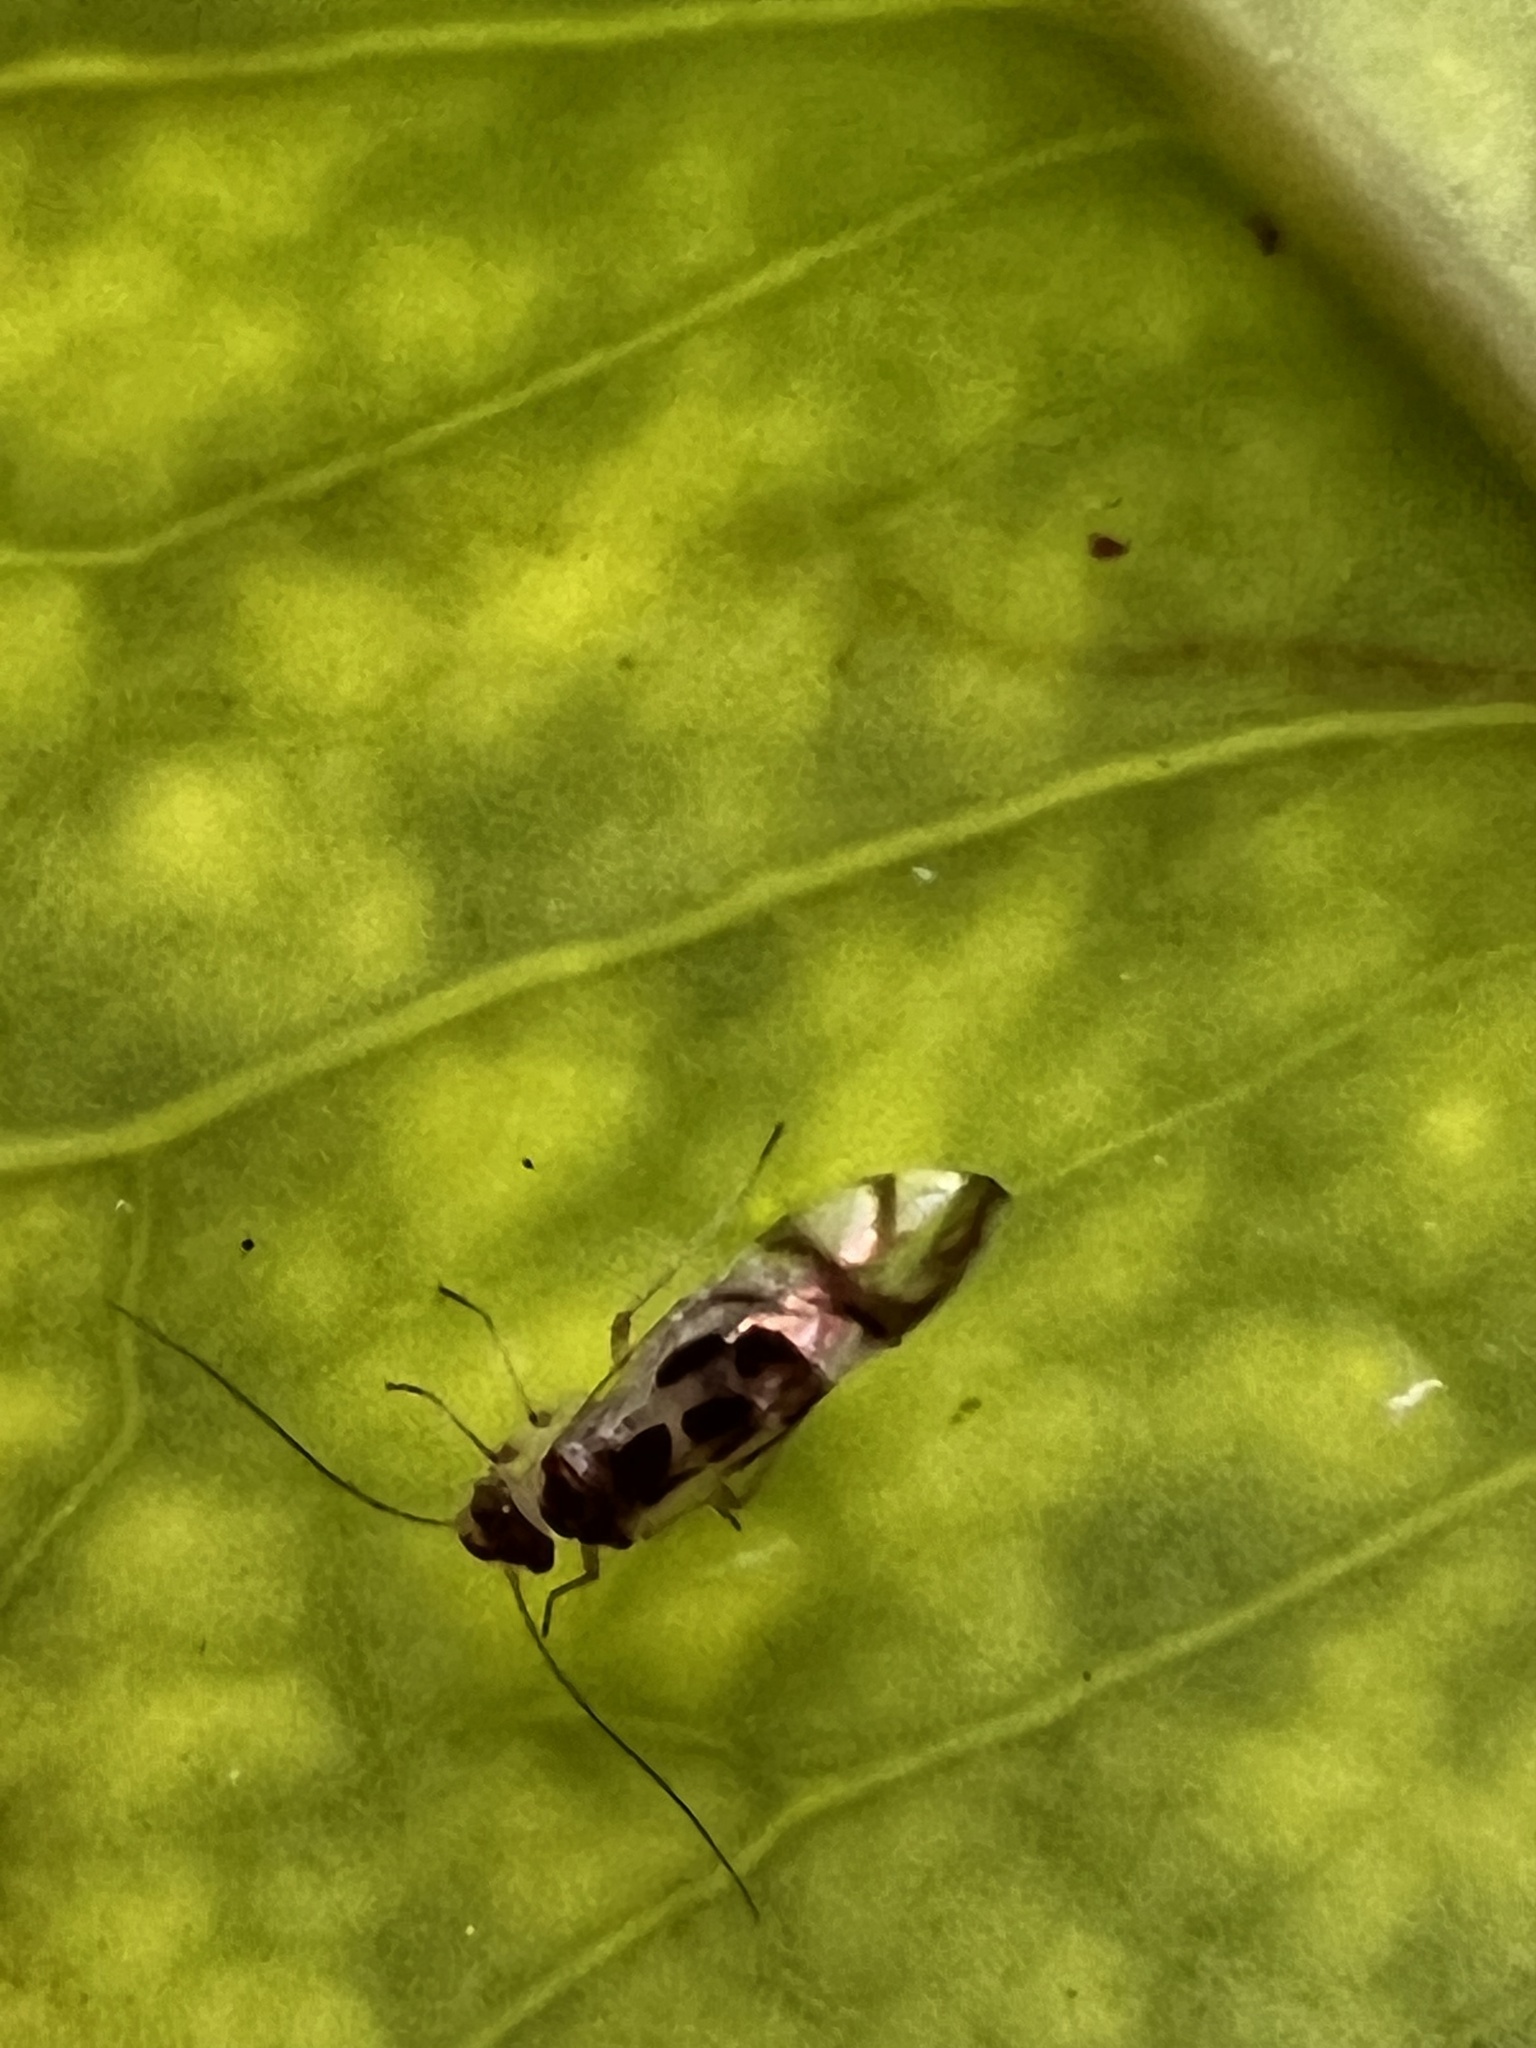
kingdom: Animalia
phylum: Arthropoda
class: Insecta
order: Psocodea
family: Stenopsocidae
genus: Graphopsocus
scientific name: Graphopsocus cruciatus
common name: Lizard bark louse
